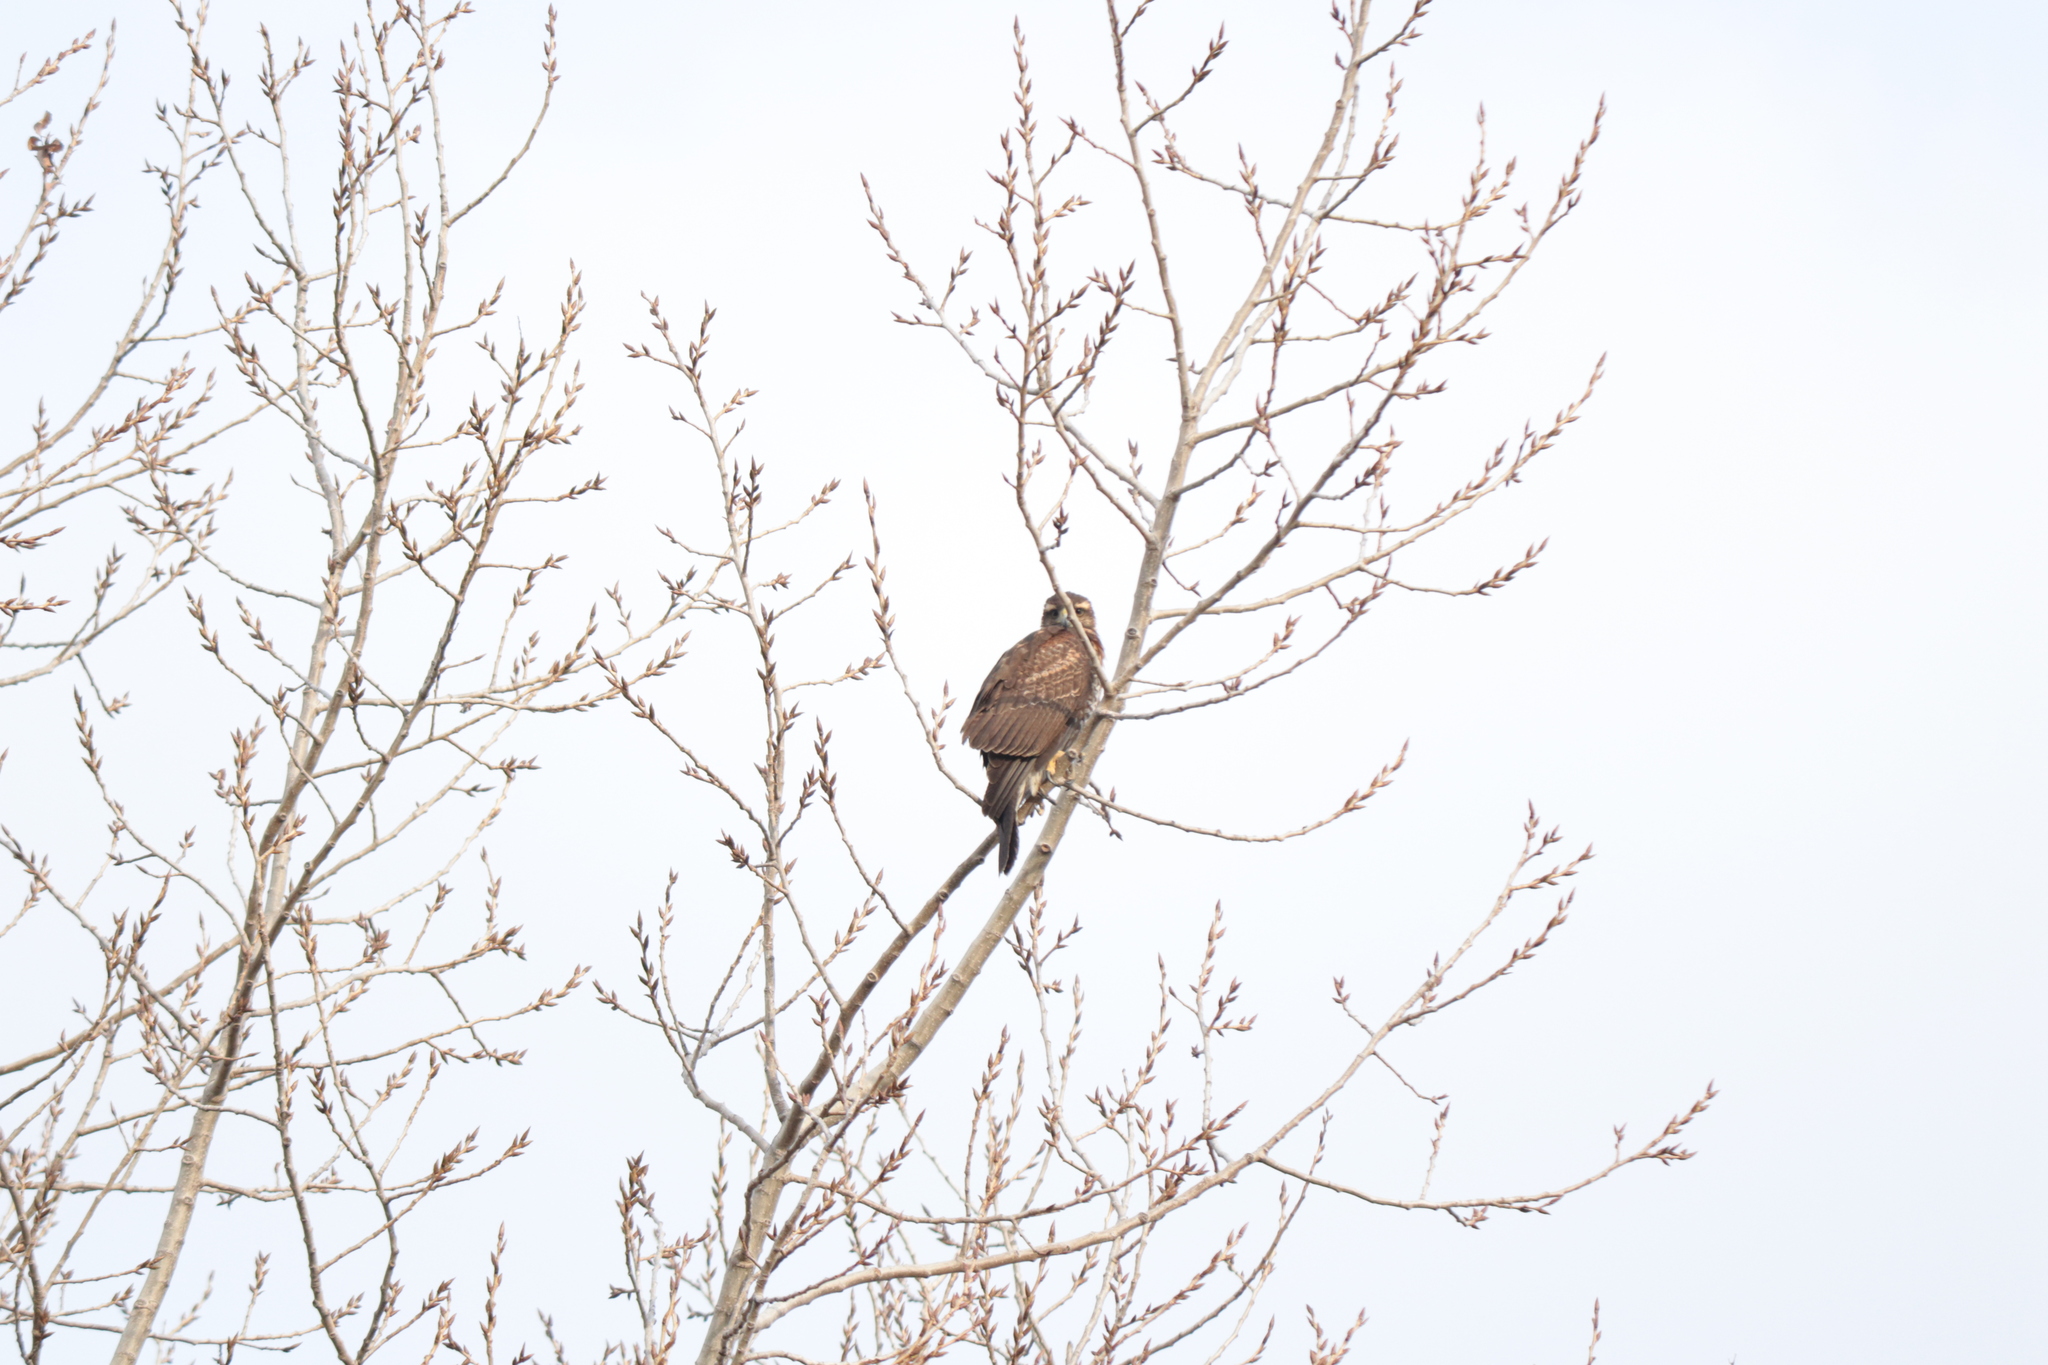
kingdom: Animalia
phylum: Chordata
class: Aves
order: Accipitriformes
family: Accipitridae
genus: Parabuteo
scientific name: Parabuteo unicinctus
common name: Harris's hawk
